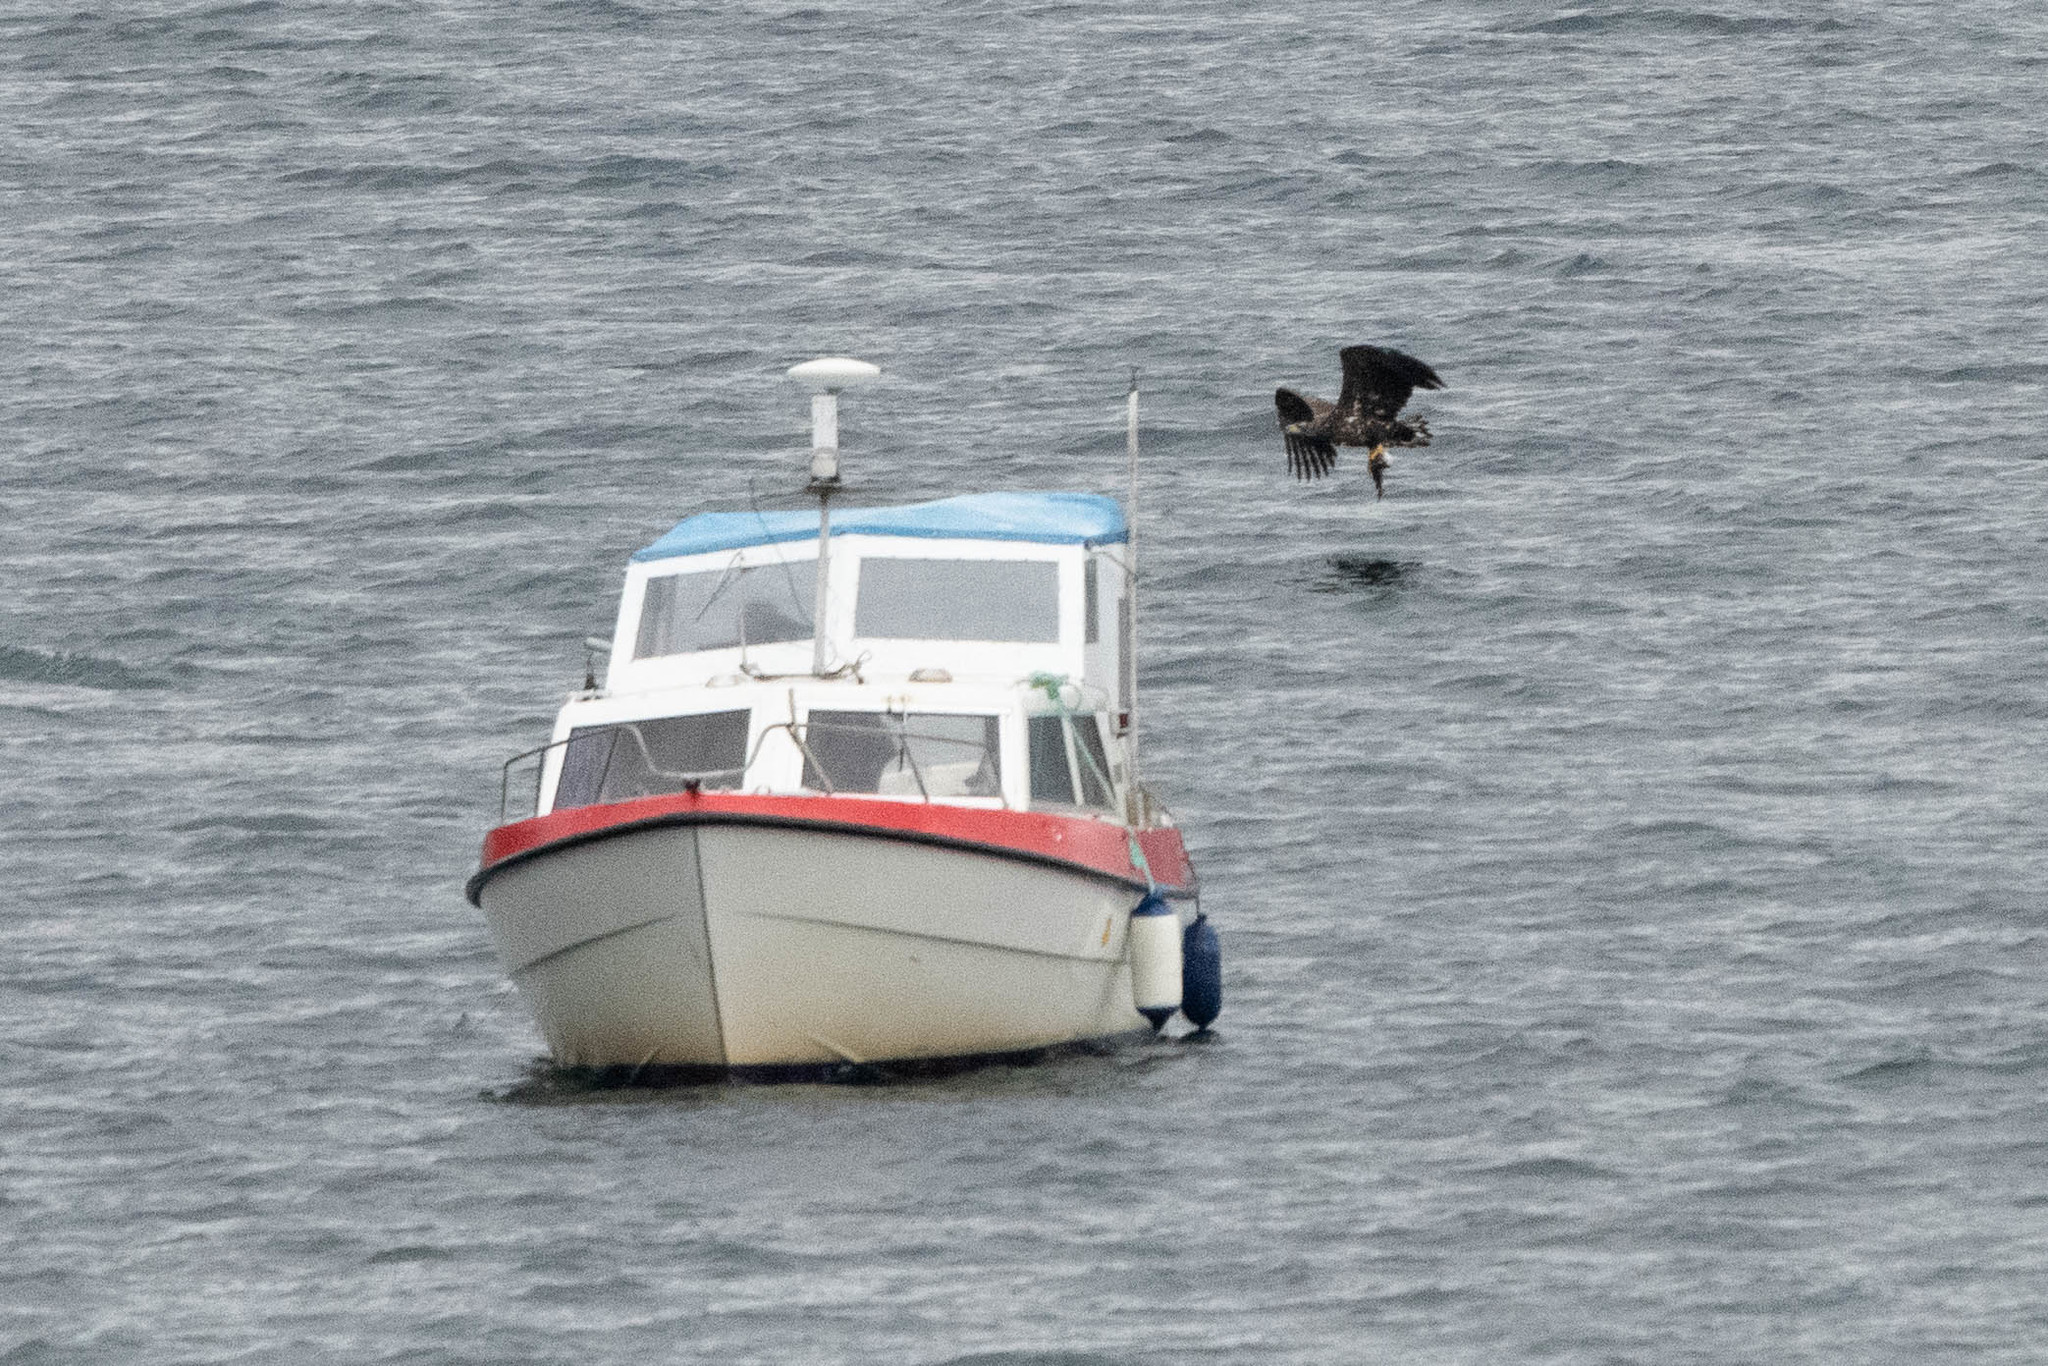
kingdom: Animalia
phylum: Chordata
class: Aves
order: Accipitriformes
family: Accipitridae
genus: Haliaeetus
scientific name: Haliaeetus albicilla
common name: White-tailed eagle
